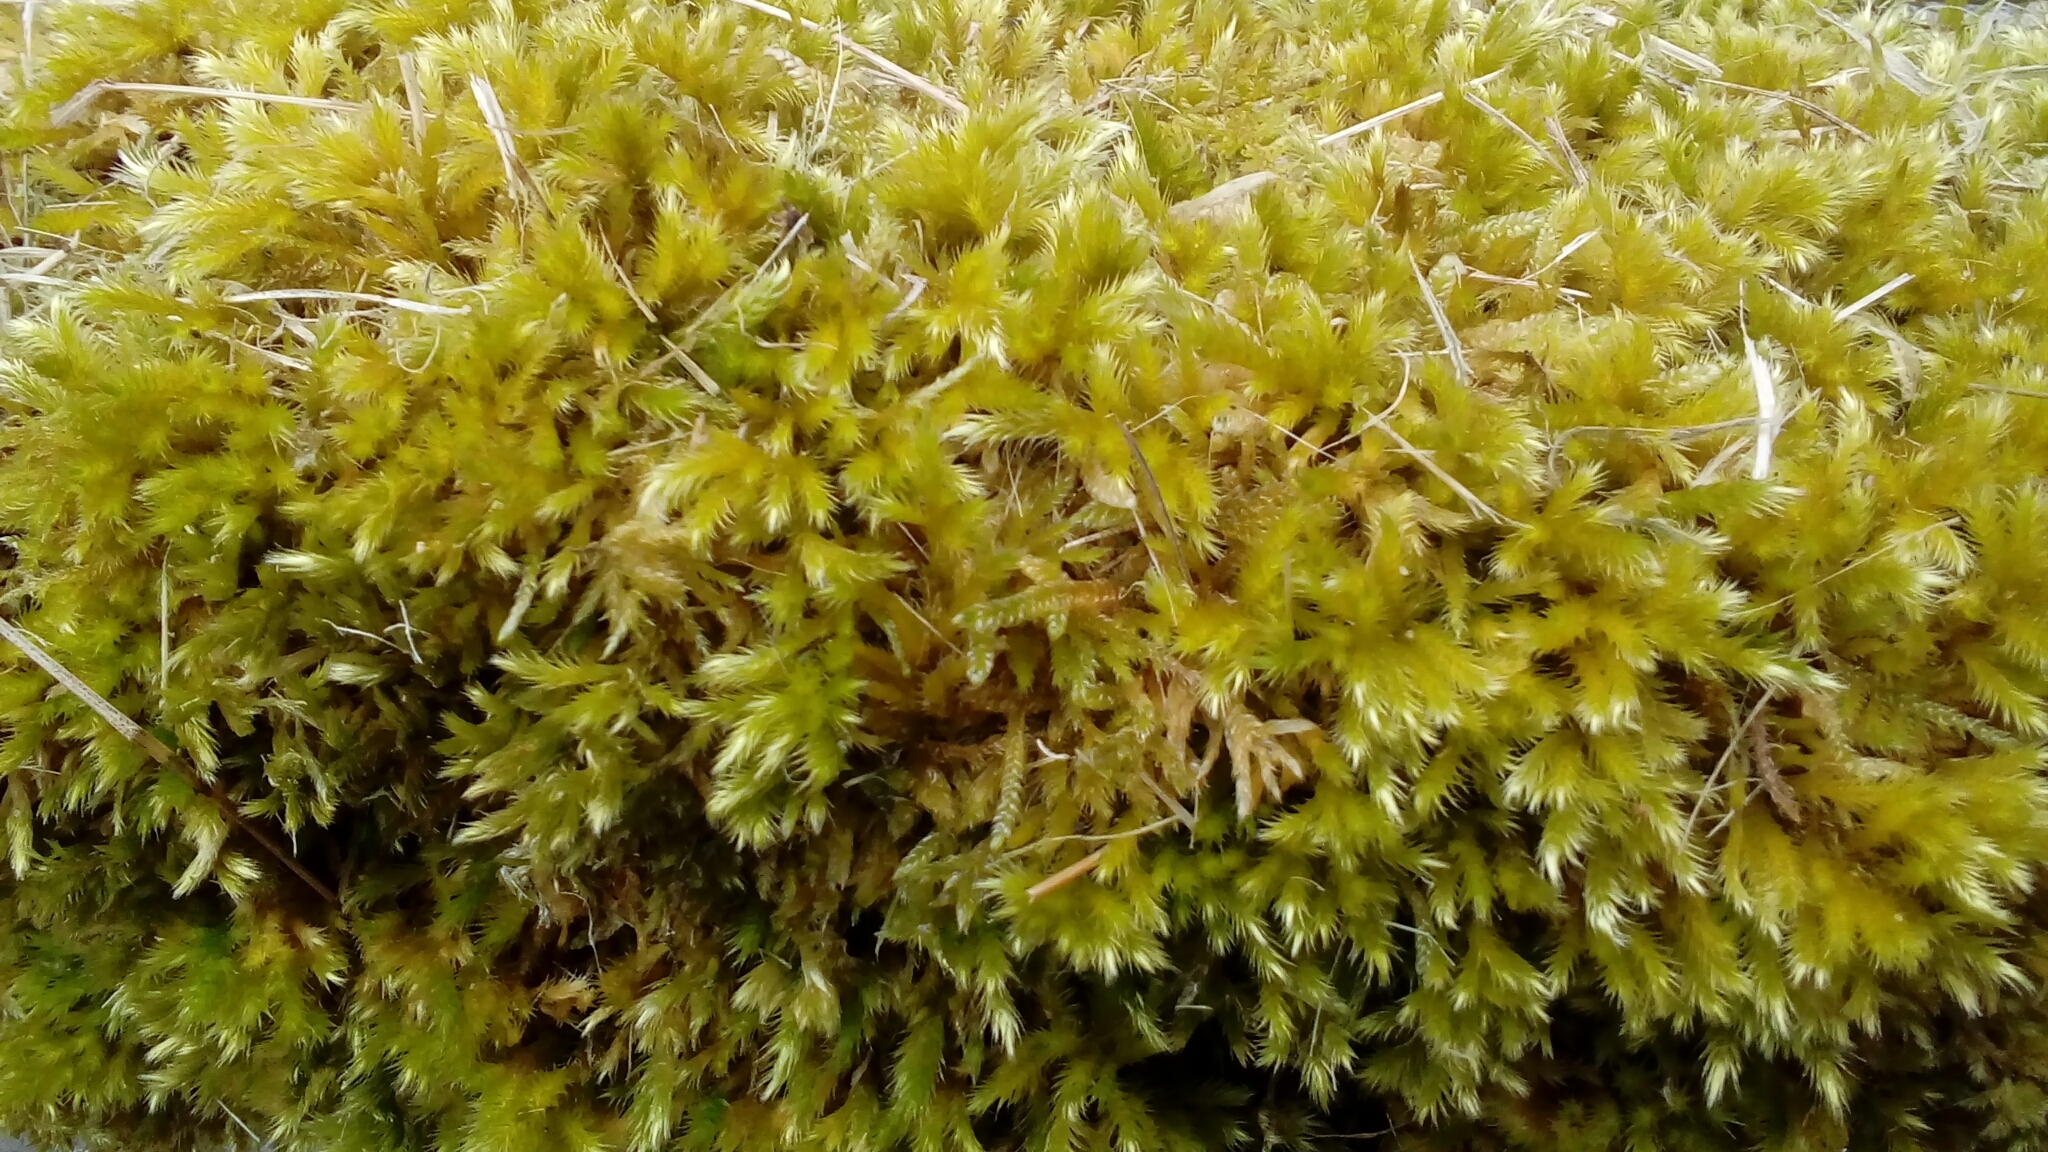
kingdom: Plantae
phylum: Bryophyta
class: Bryopsida
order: Hypnales
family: Brachytheciaceae
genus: Homalothecium
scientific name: Homalothecium sericeum
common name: Silky wall feather-moss
